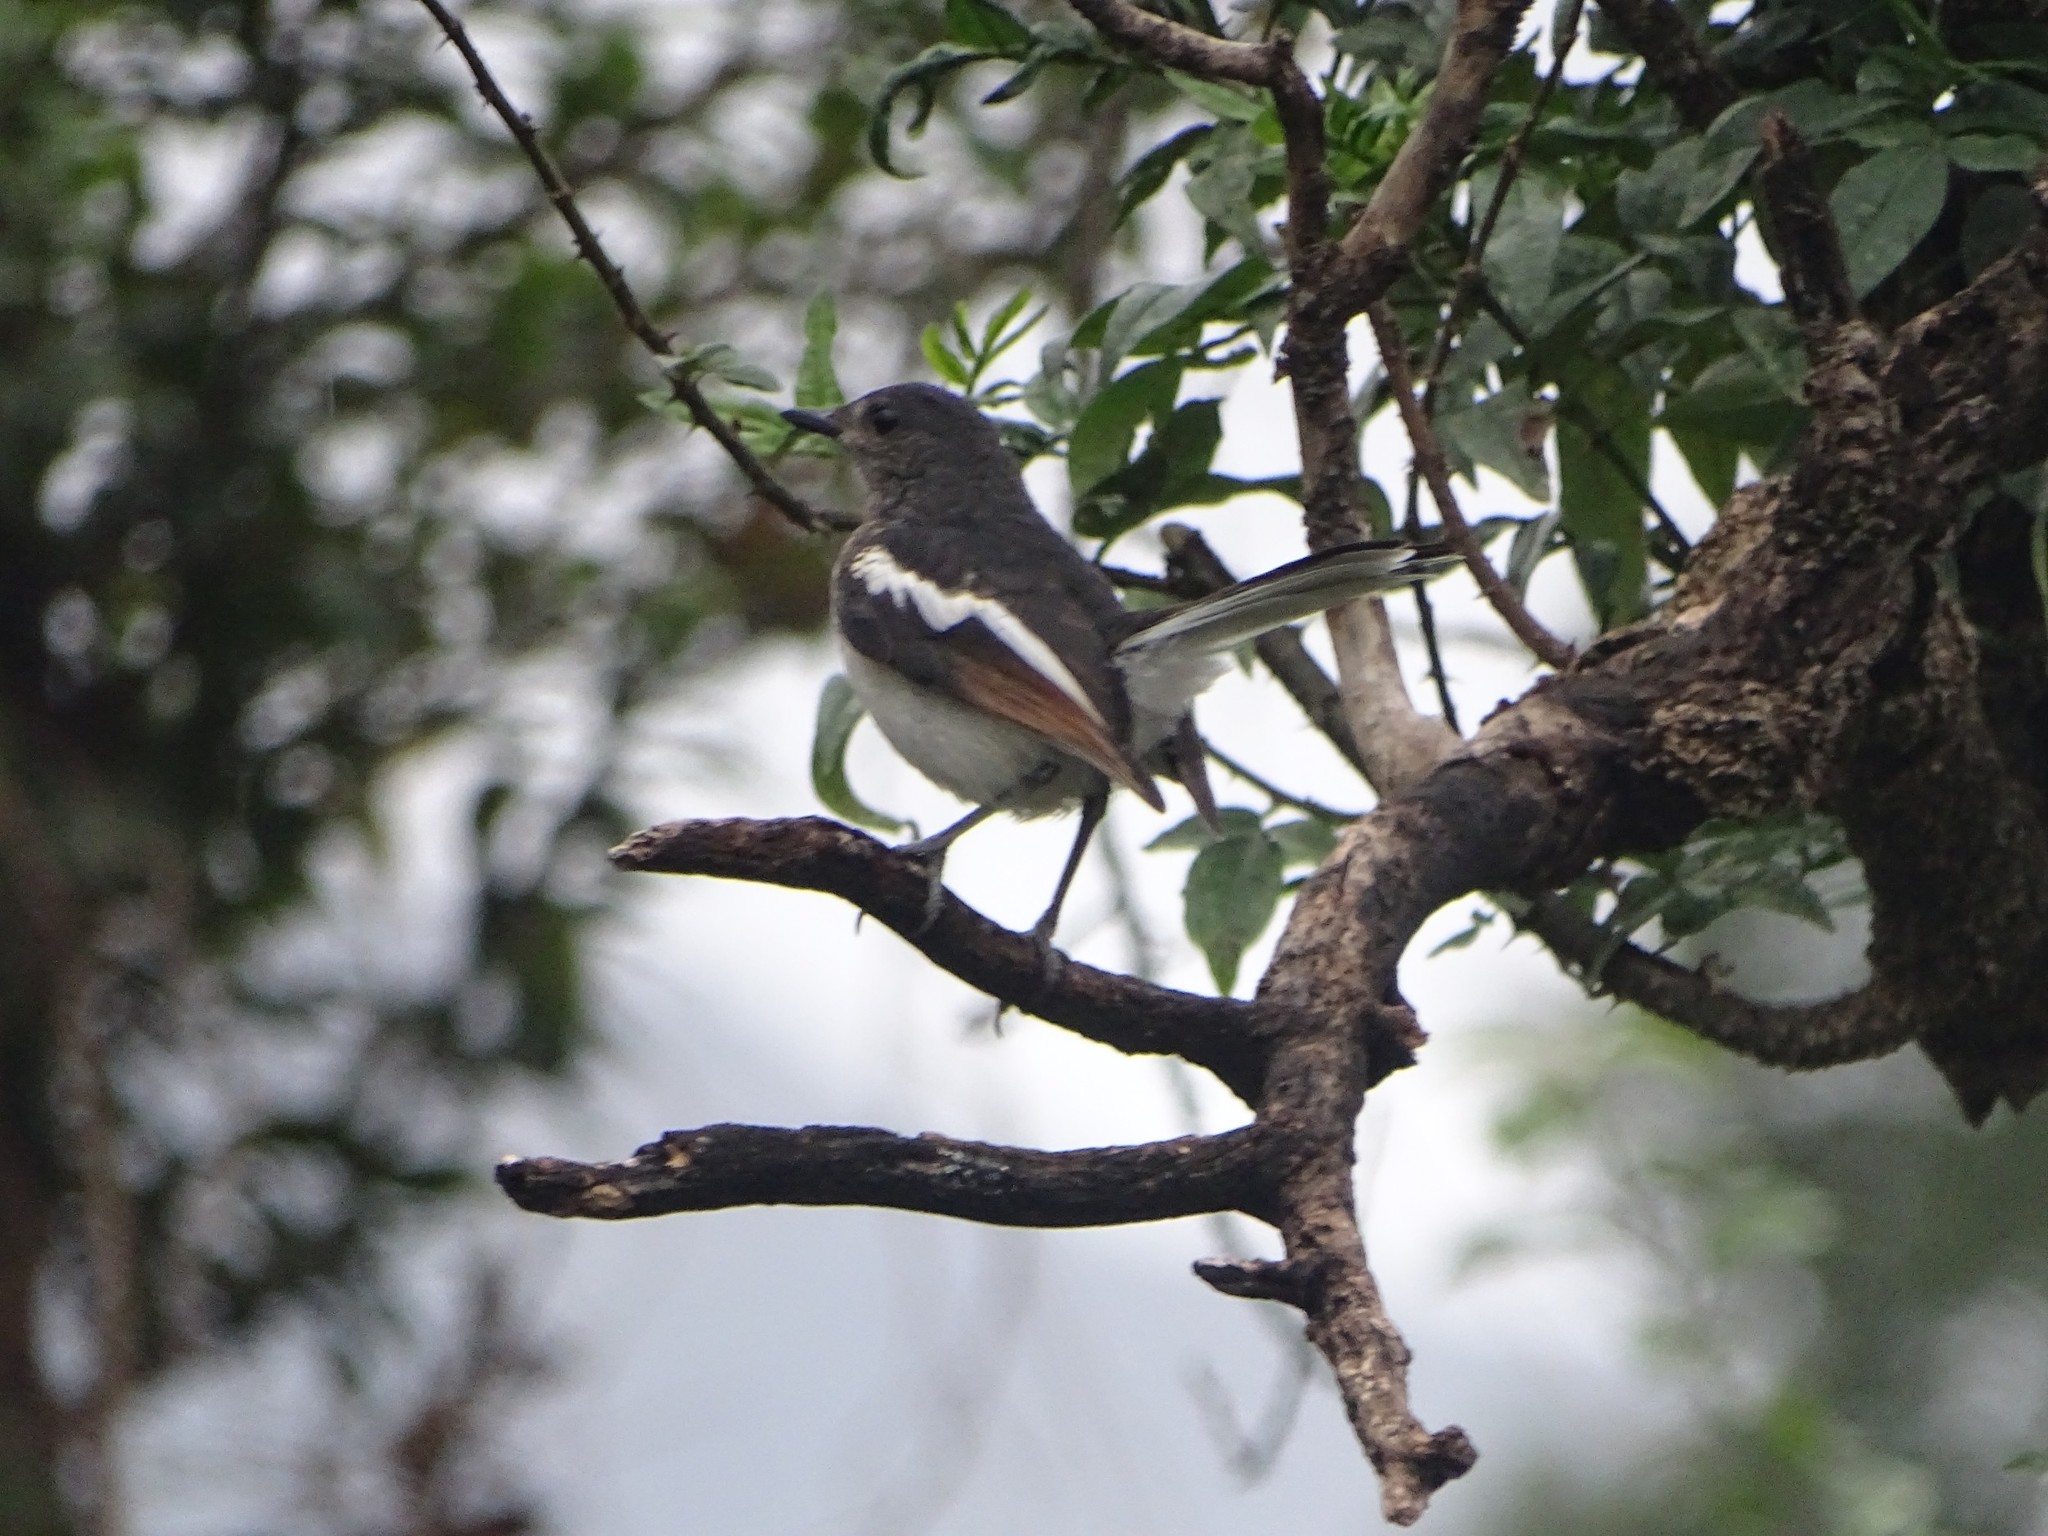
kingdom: Animalia
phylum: Chordata
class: Aves
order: Passeriformes
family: Muscicapidae
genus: Copsychus
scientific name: Copsychus saularis
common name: Oriental magpie-robin
